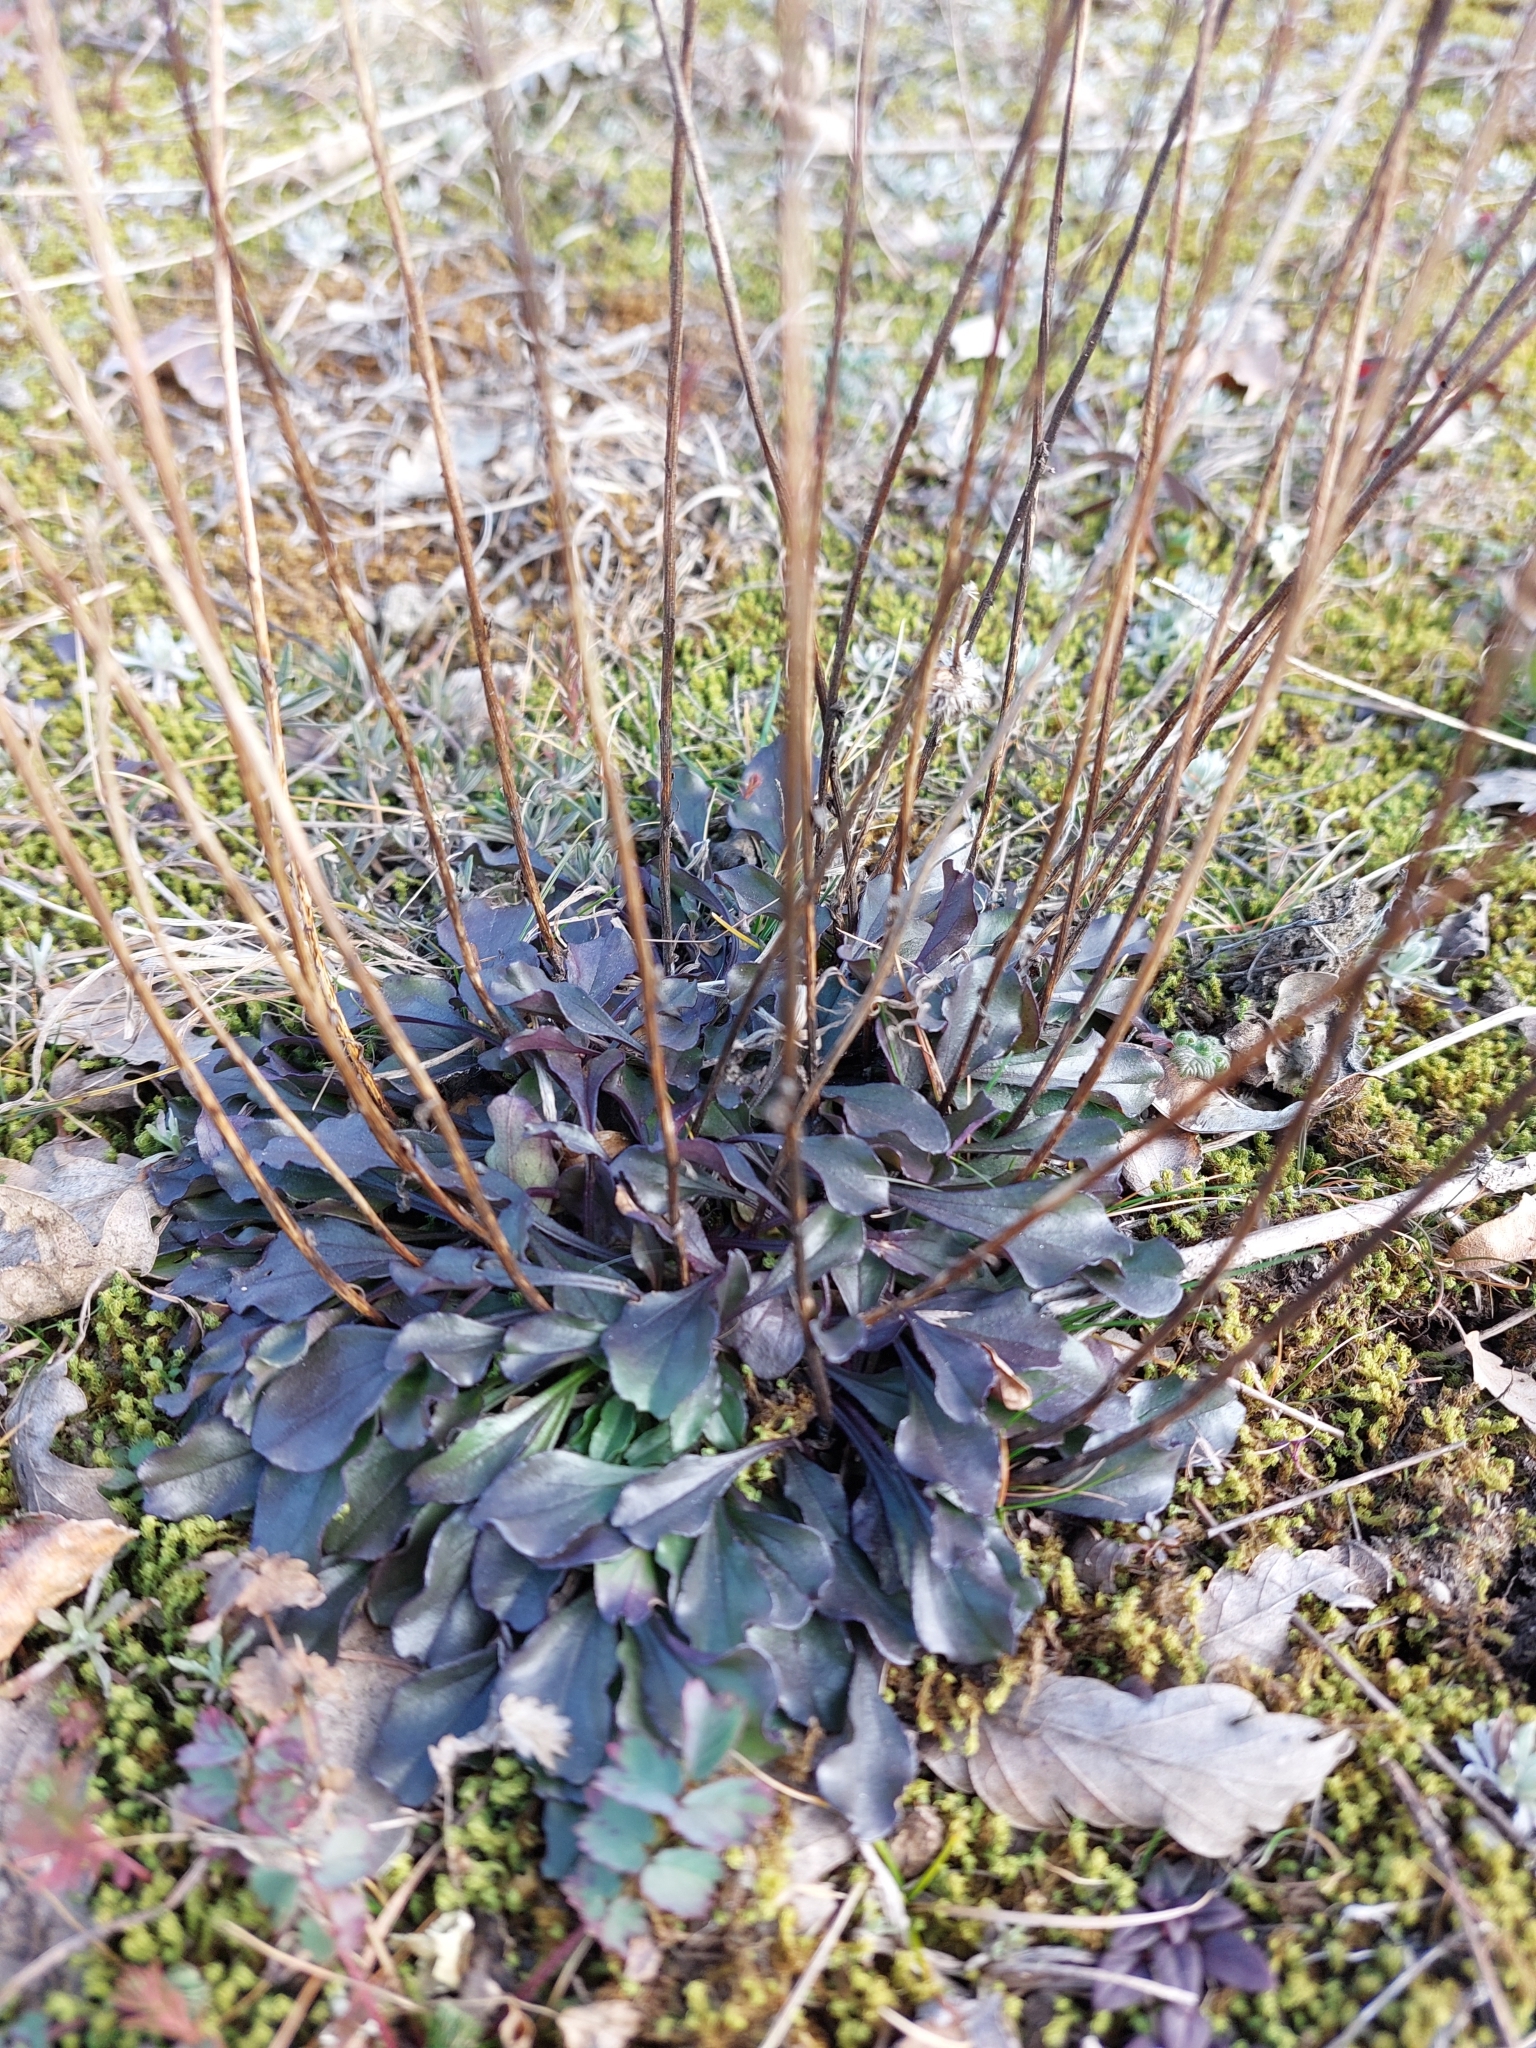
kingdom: Plantae
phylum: Tracheophyta
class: Magnoliopsida
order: Lamiales
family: Plantaginaceae
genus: Globularia
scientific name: Globularia bisnagarica
